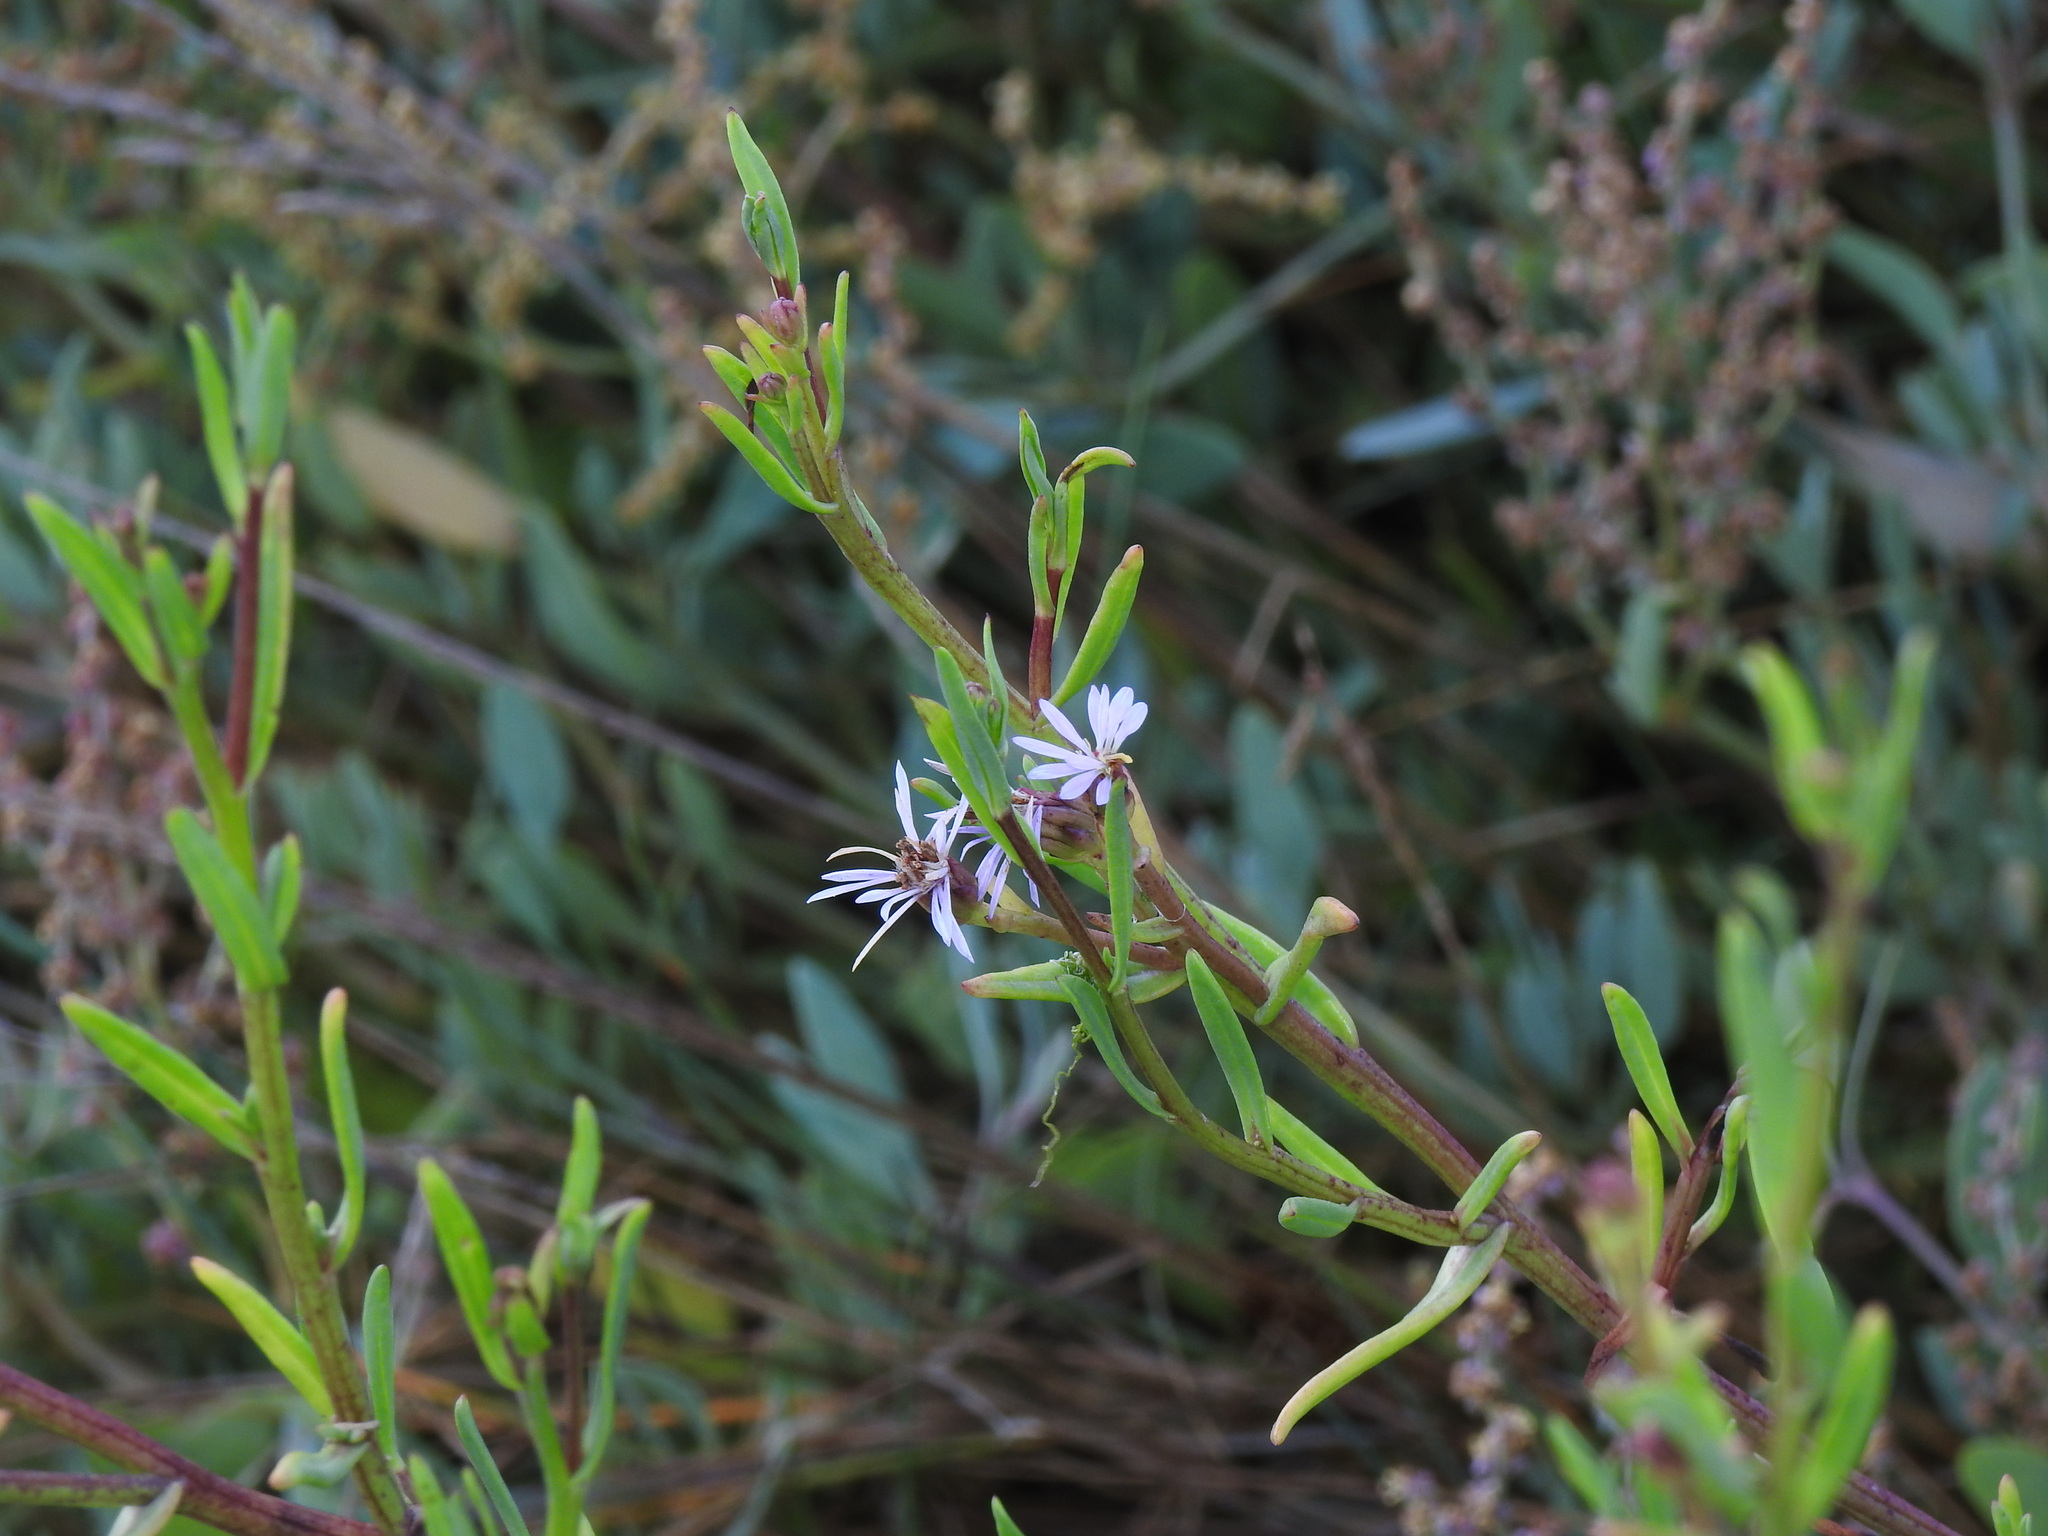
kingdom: Plantae
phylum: Tracheophyta
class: Magnoliopsida
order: Asterales
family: Asteraceae
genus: Tripolium
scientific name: Tripolium pannonicum
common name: Sea aster
